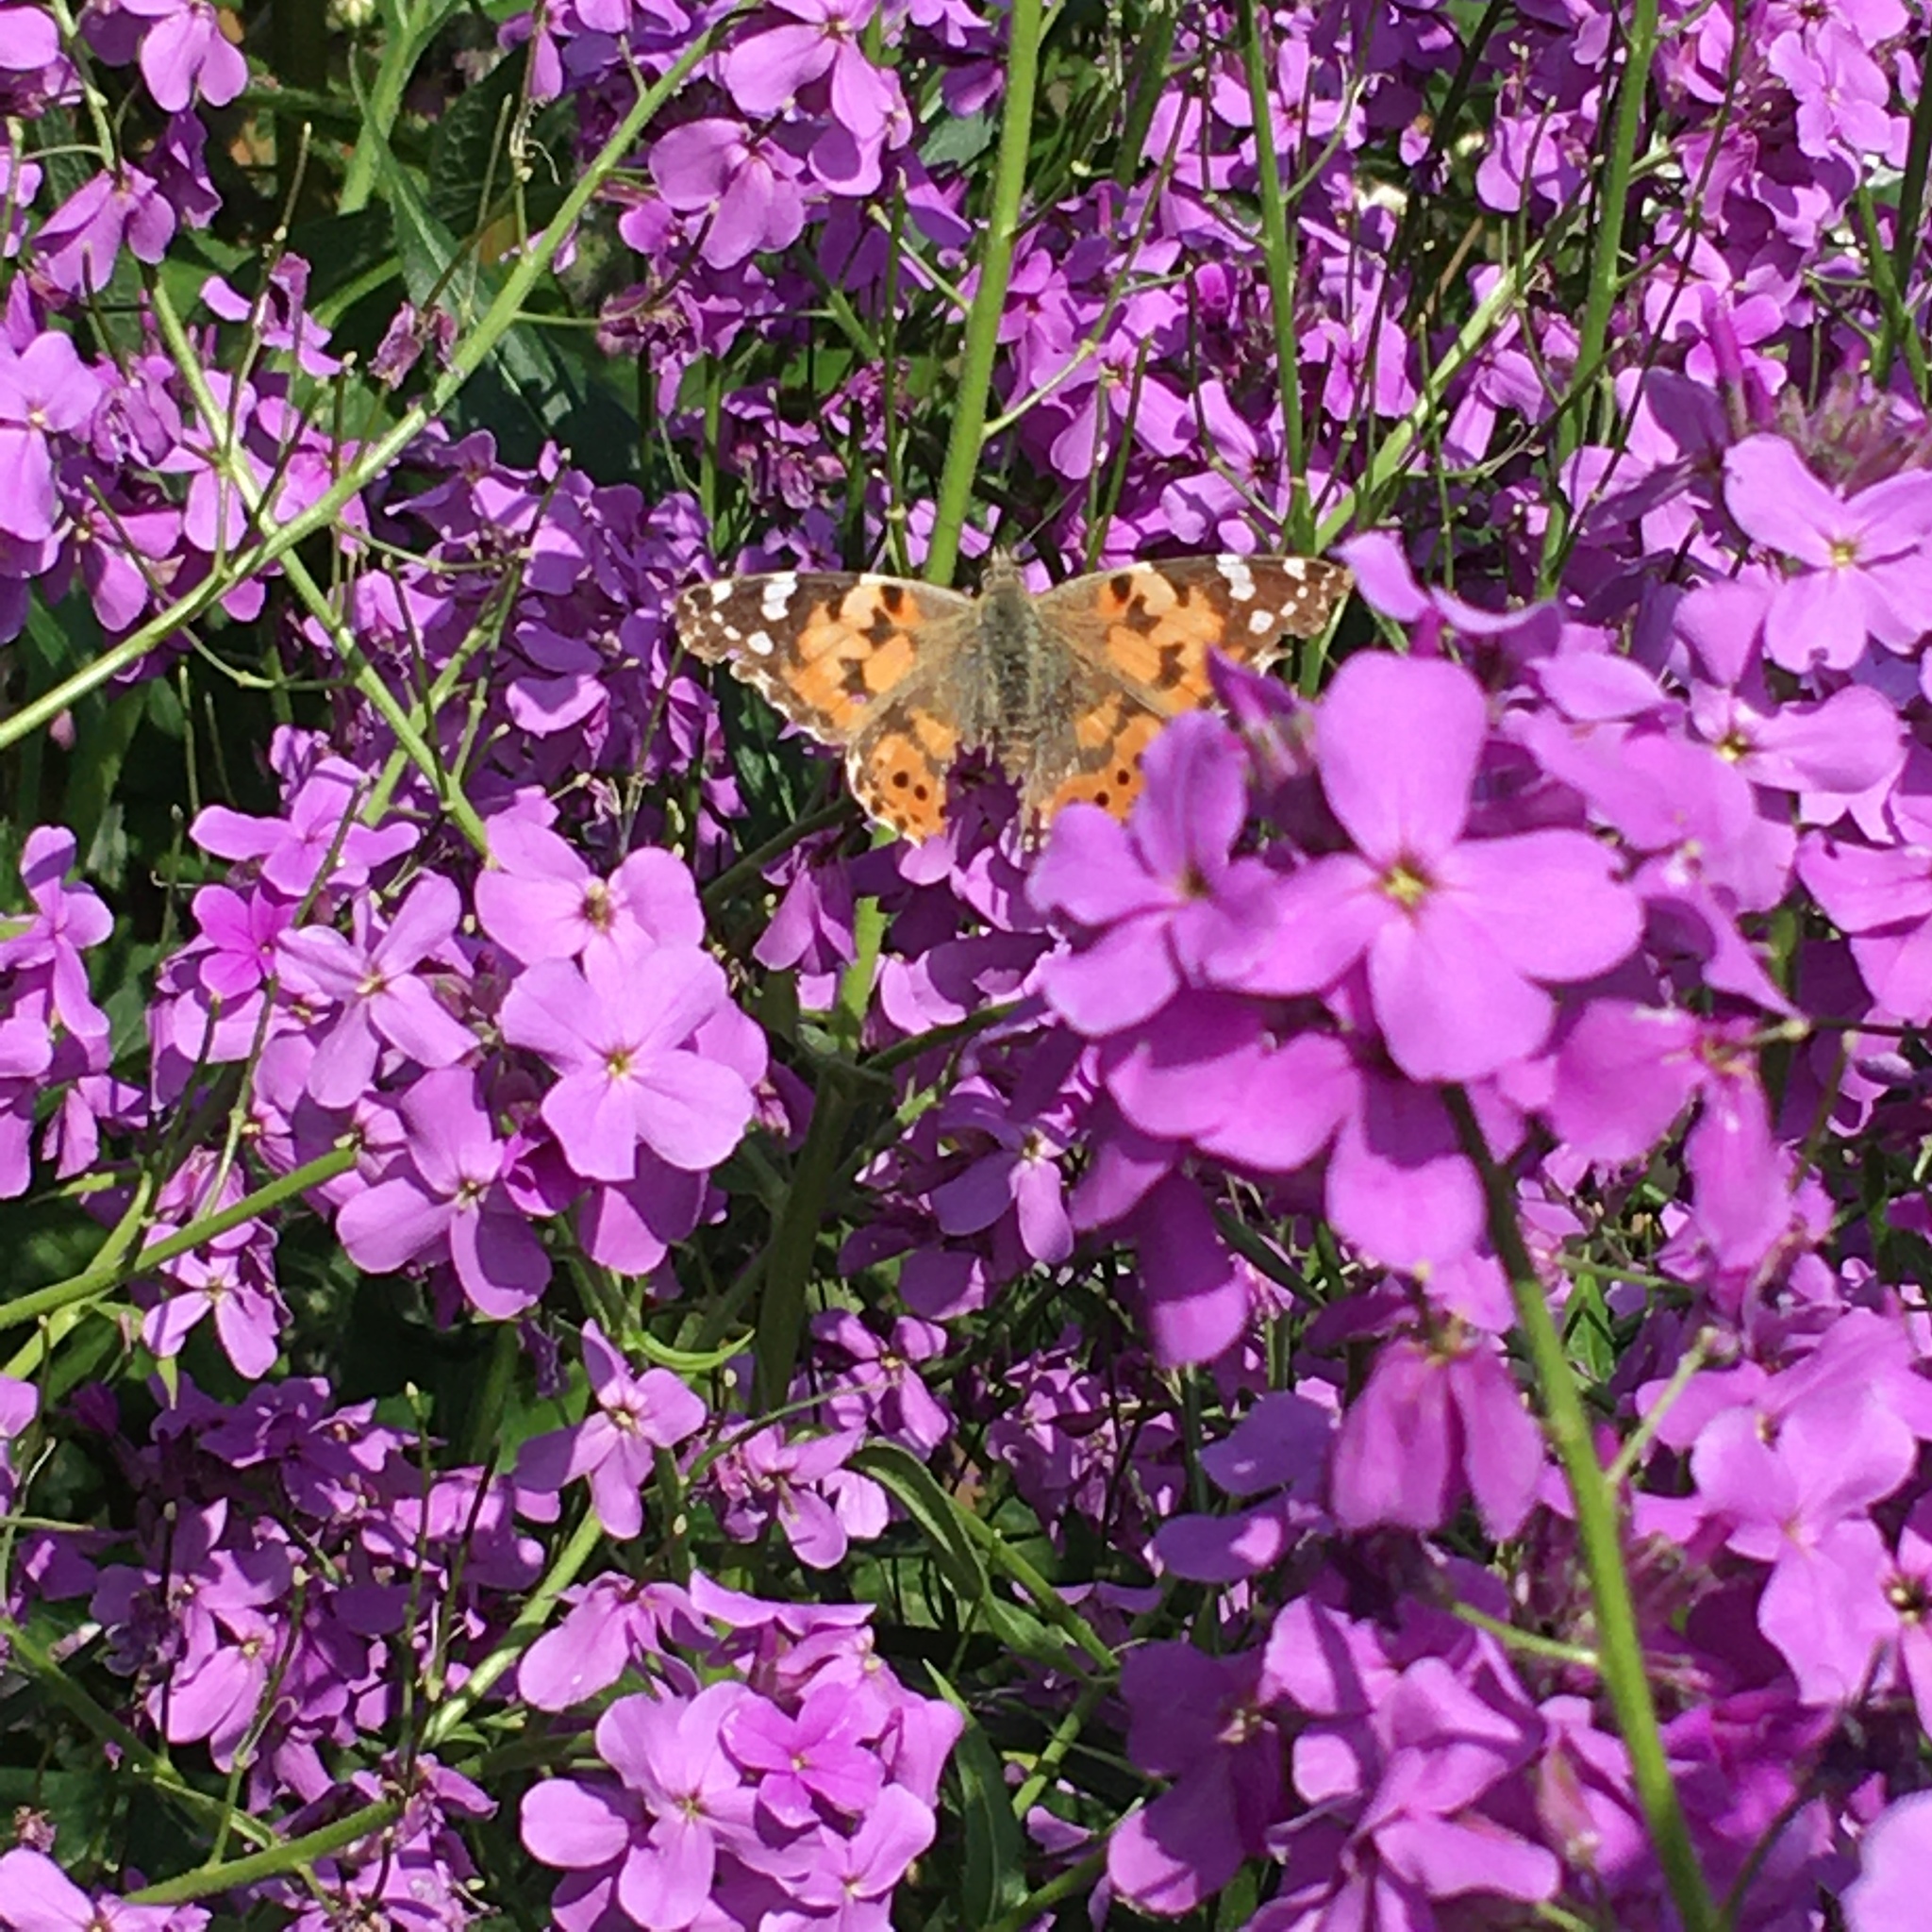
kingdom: Animalia
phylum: Arthropoda
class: Insecta
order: Lepidoptera
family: Nymphalidae
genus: Vanessa
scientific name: Vanessa cardui
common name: Painted lady
